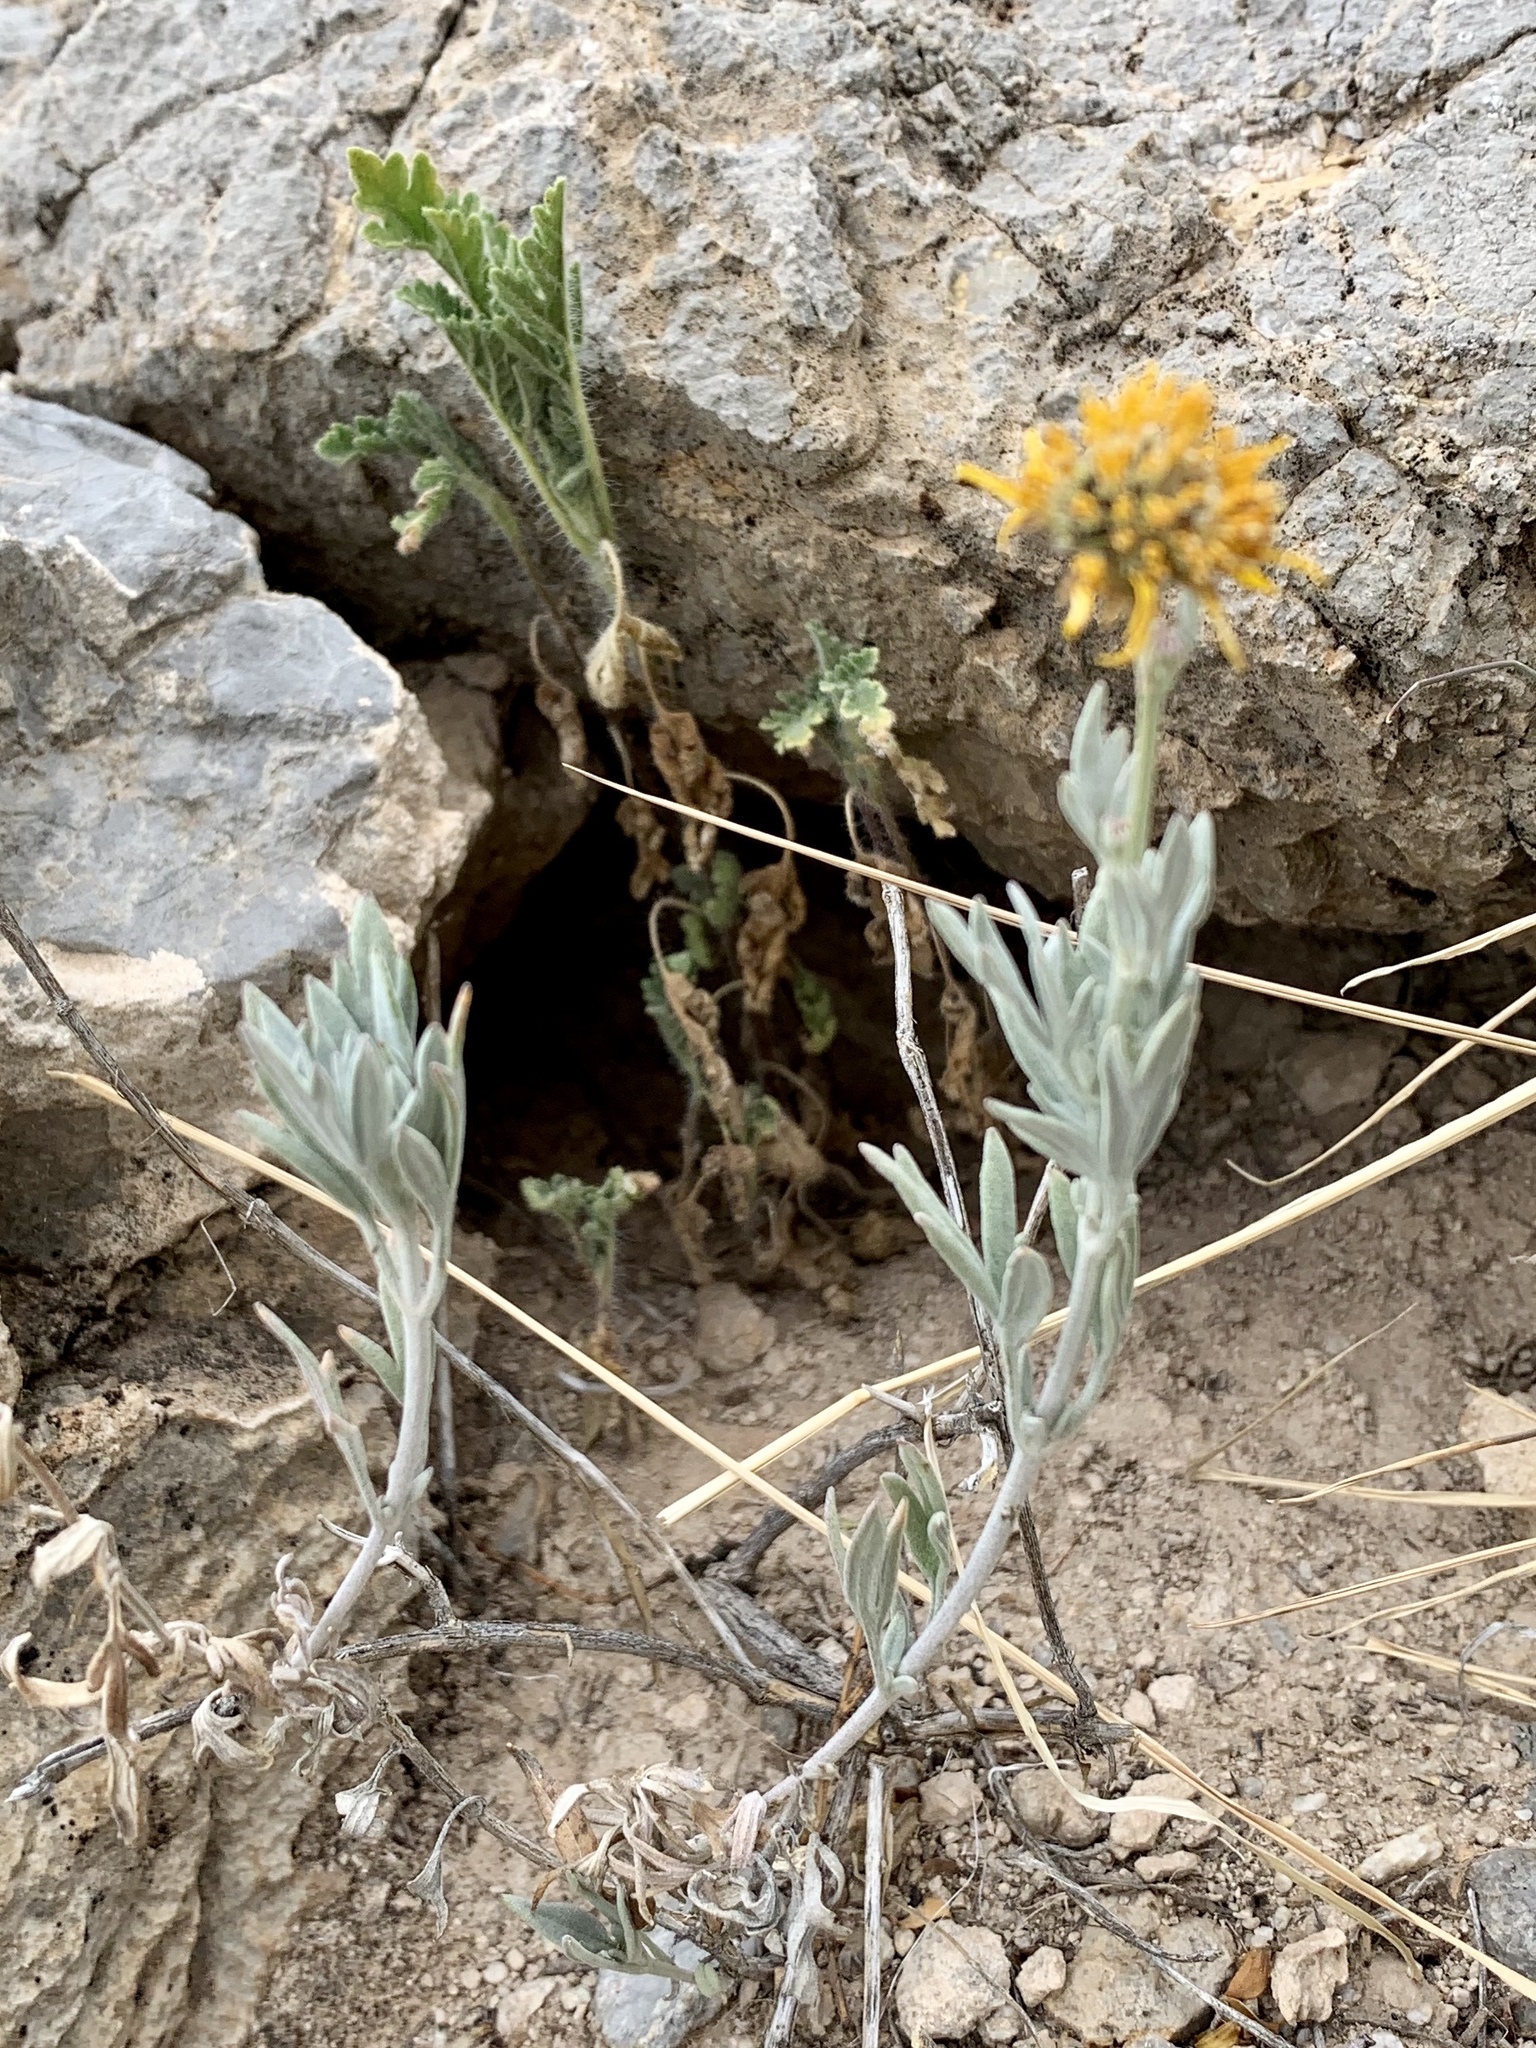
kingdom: Plantae
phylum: Tracheophyta
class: Magnoliopsida
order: Asterales
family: Asteraceae
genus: Picradeniopsis
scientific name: Picradeniopsis absinthifolia
